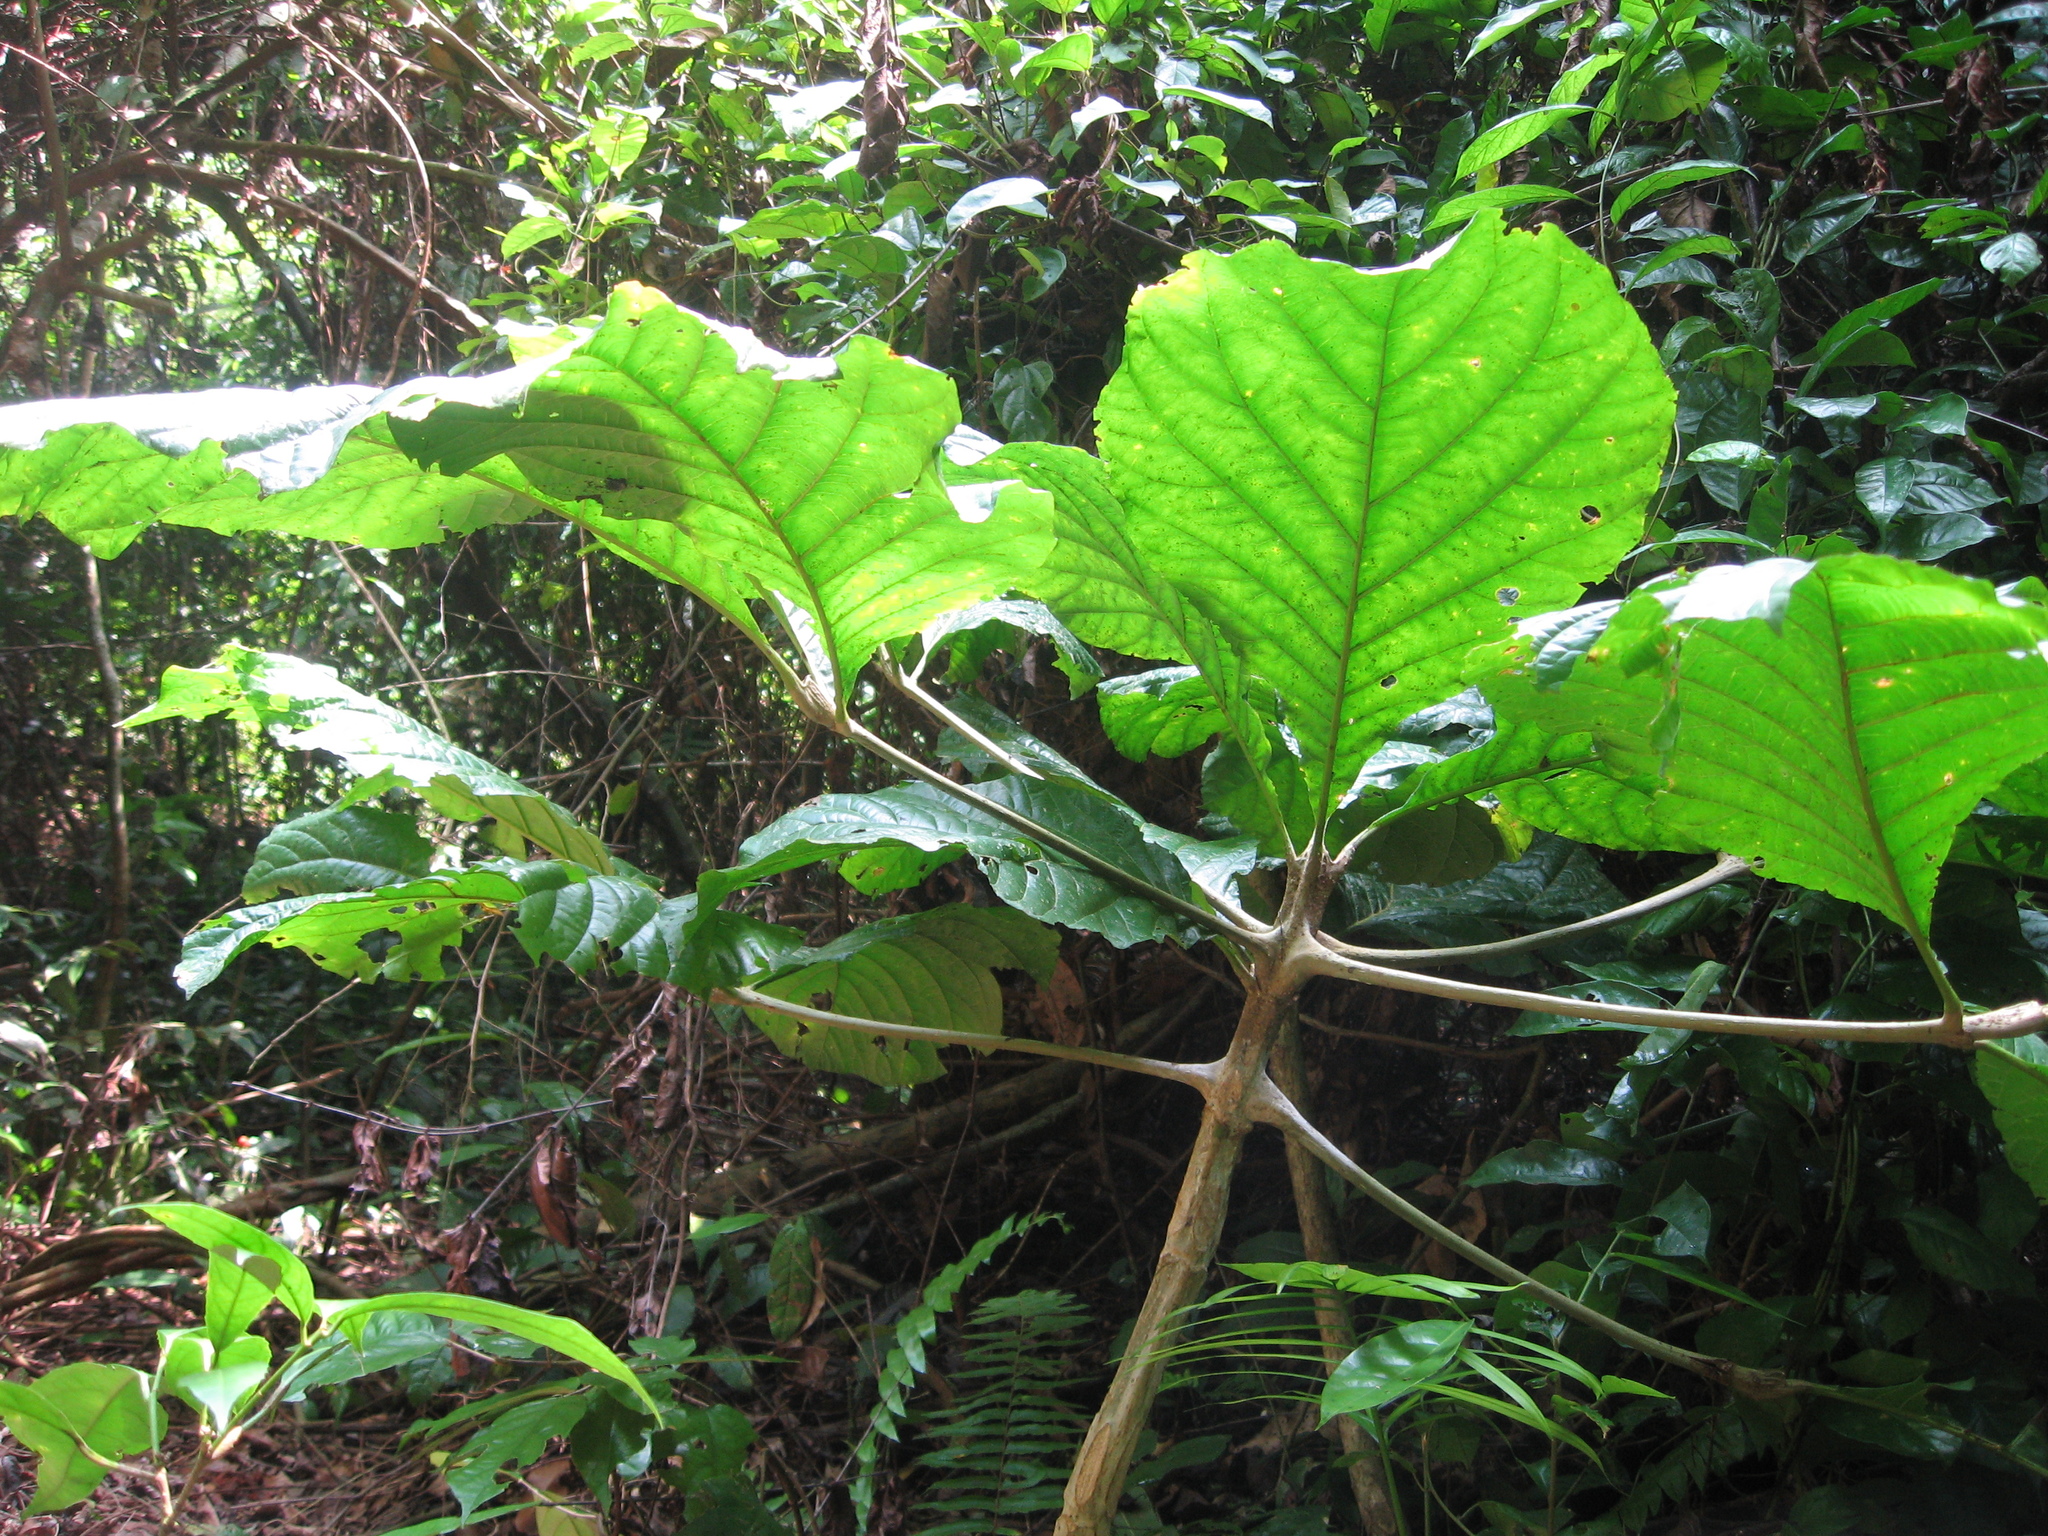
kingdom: Plantae
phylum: Tracheophyta
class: Magnoliopsida
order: Gentianales
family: Rubiaceae
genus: Schumanniophyton
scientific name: Schumanniophyton problematicum
